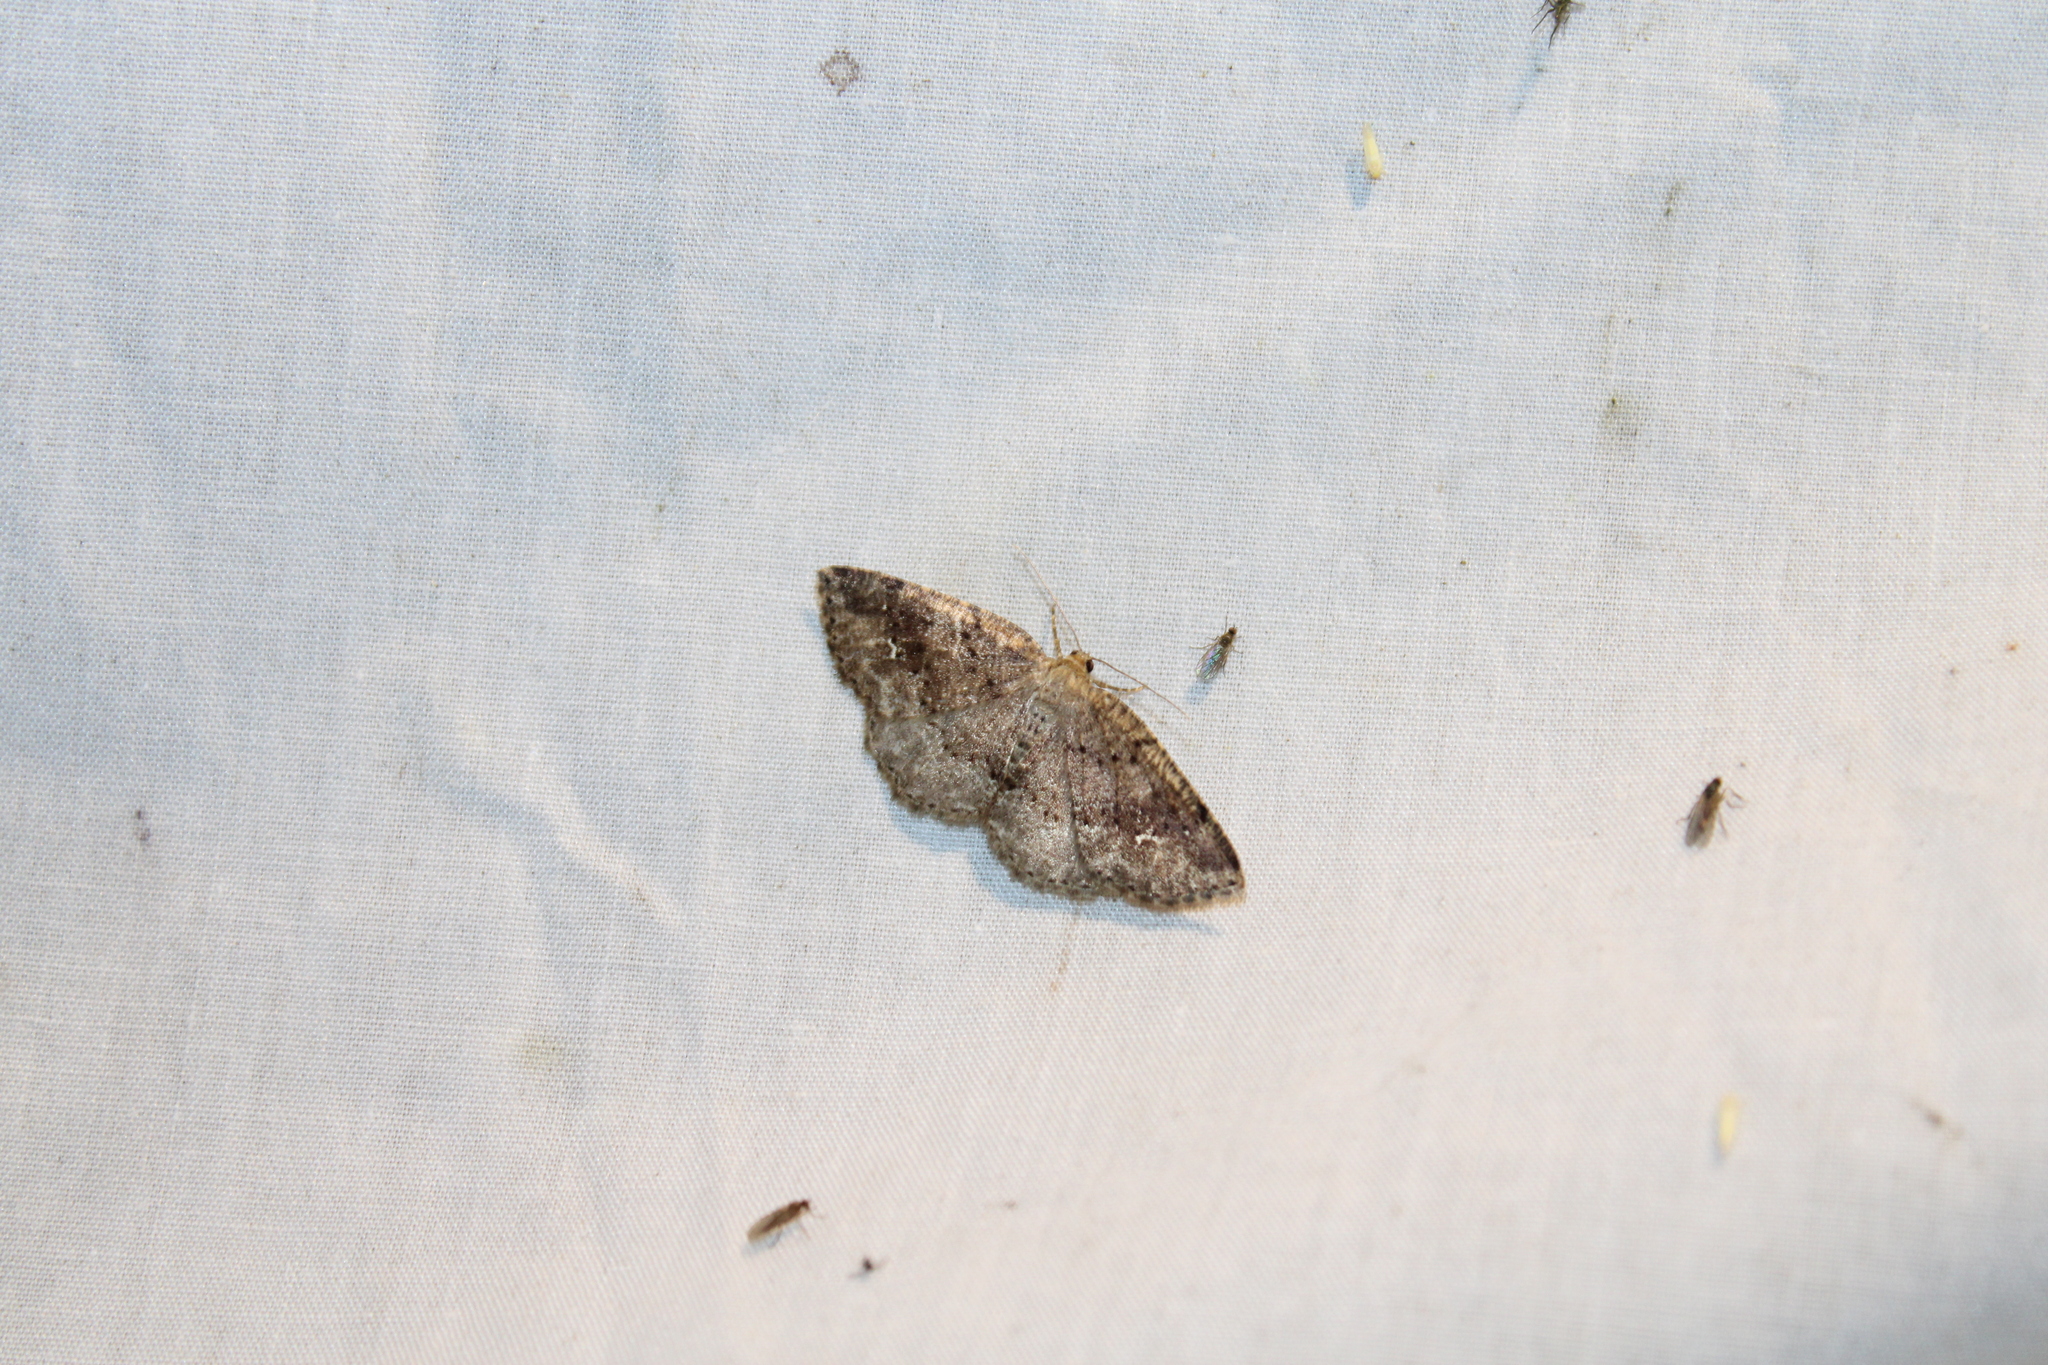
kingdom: Animalia
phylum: Arthropoda
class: Insecta
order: Lepidoptera
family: Geometridae
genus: Homochlodes
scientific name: Homochlodes fritillaria
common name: Pale homochlodes
